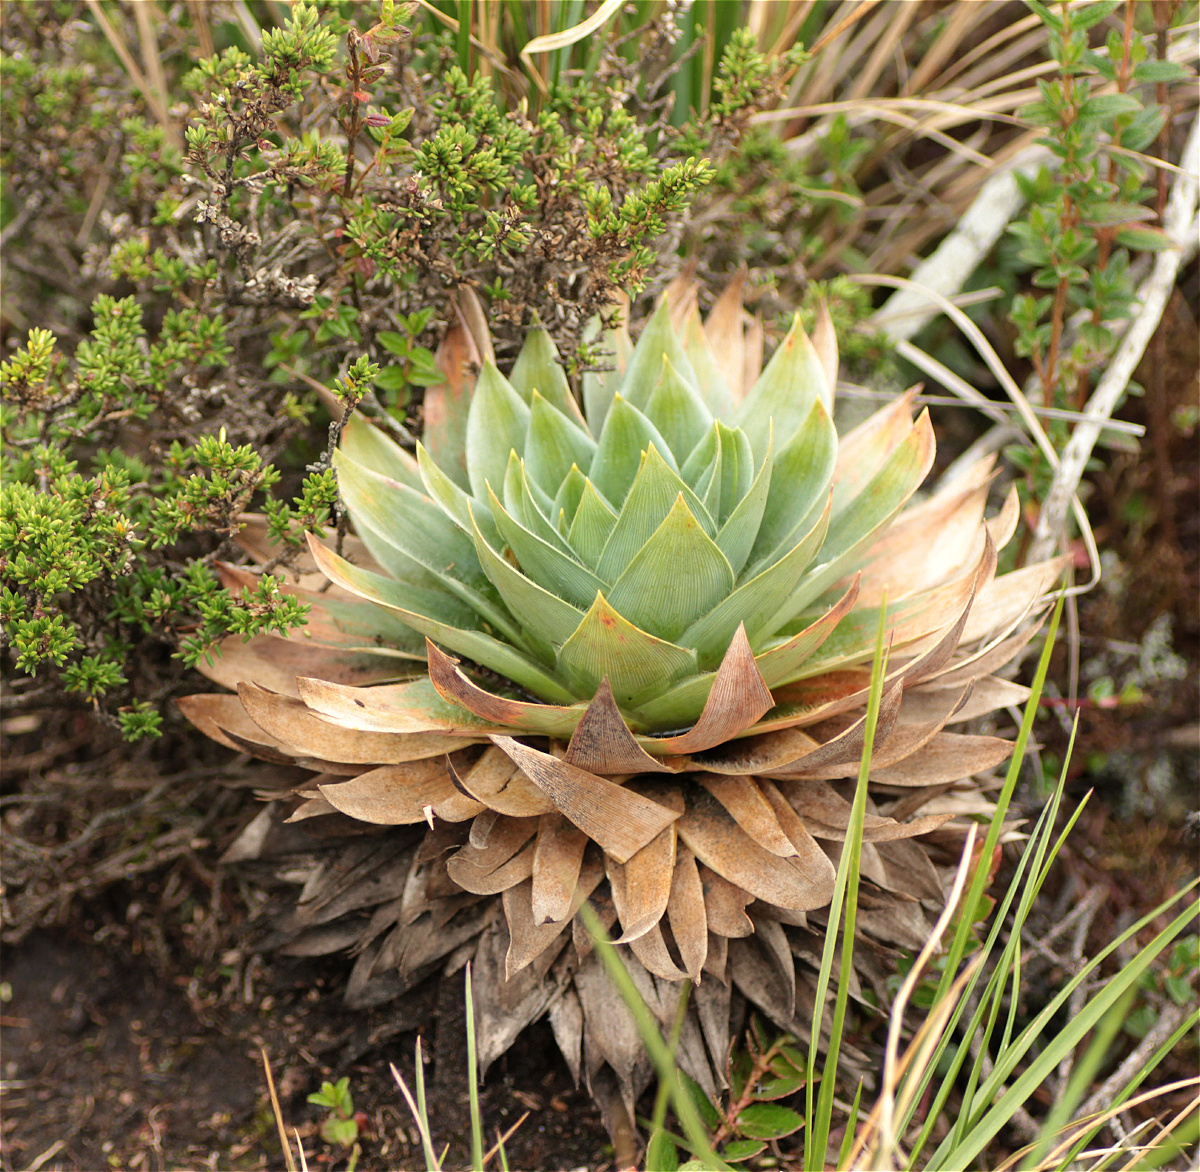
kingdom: Plantae
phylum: Tracheophyta
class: Liliopsida
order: Poales
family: Eriocaulaceae
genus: Paepalanthus
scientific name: Paepalanthus alpinus
